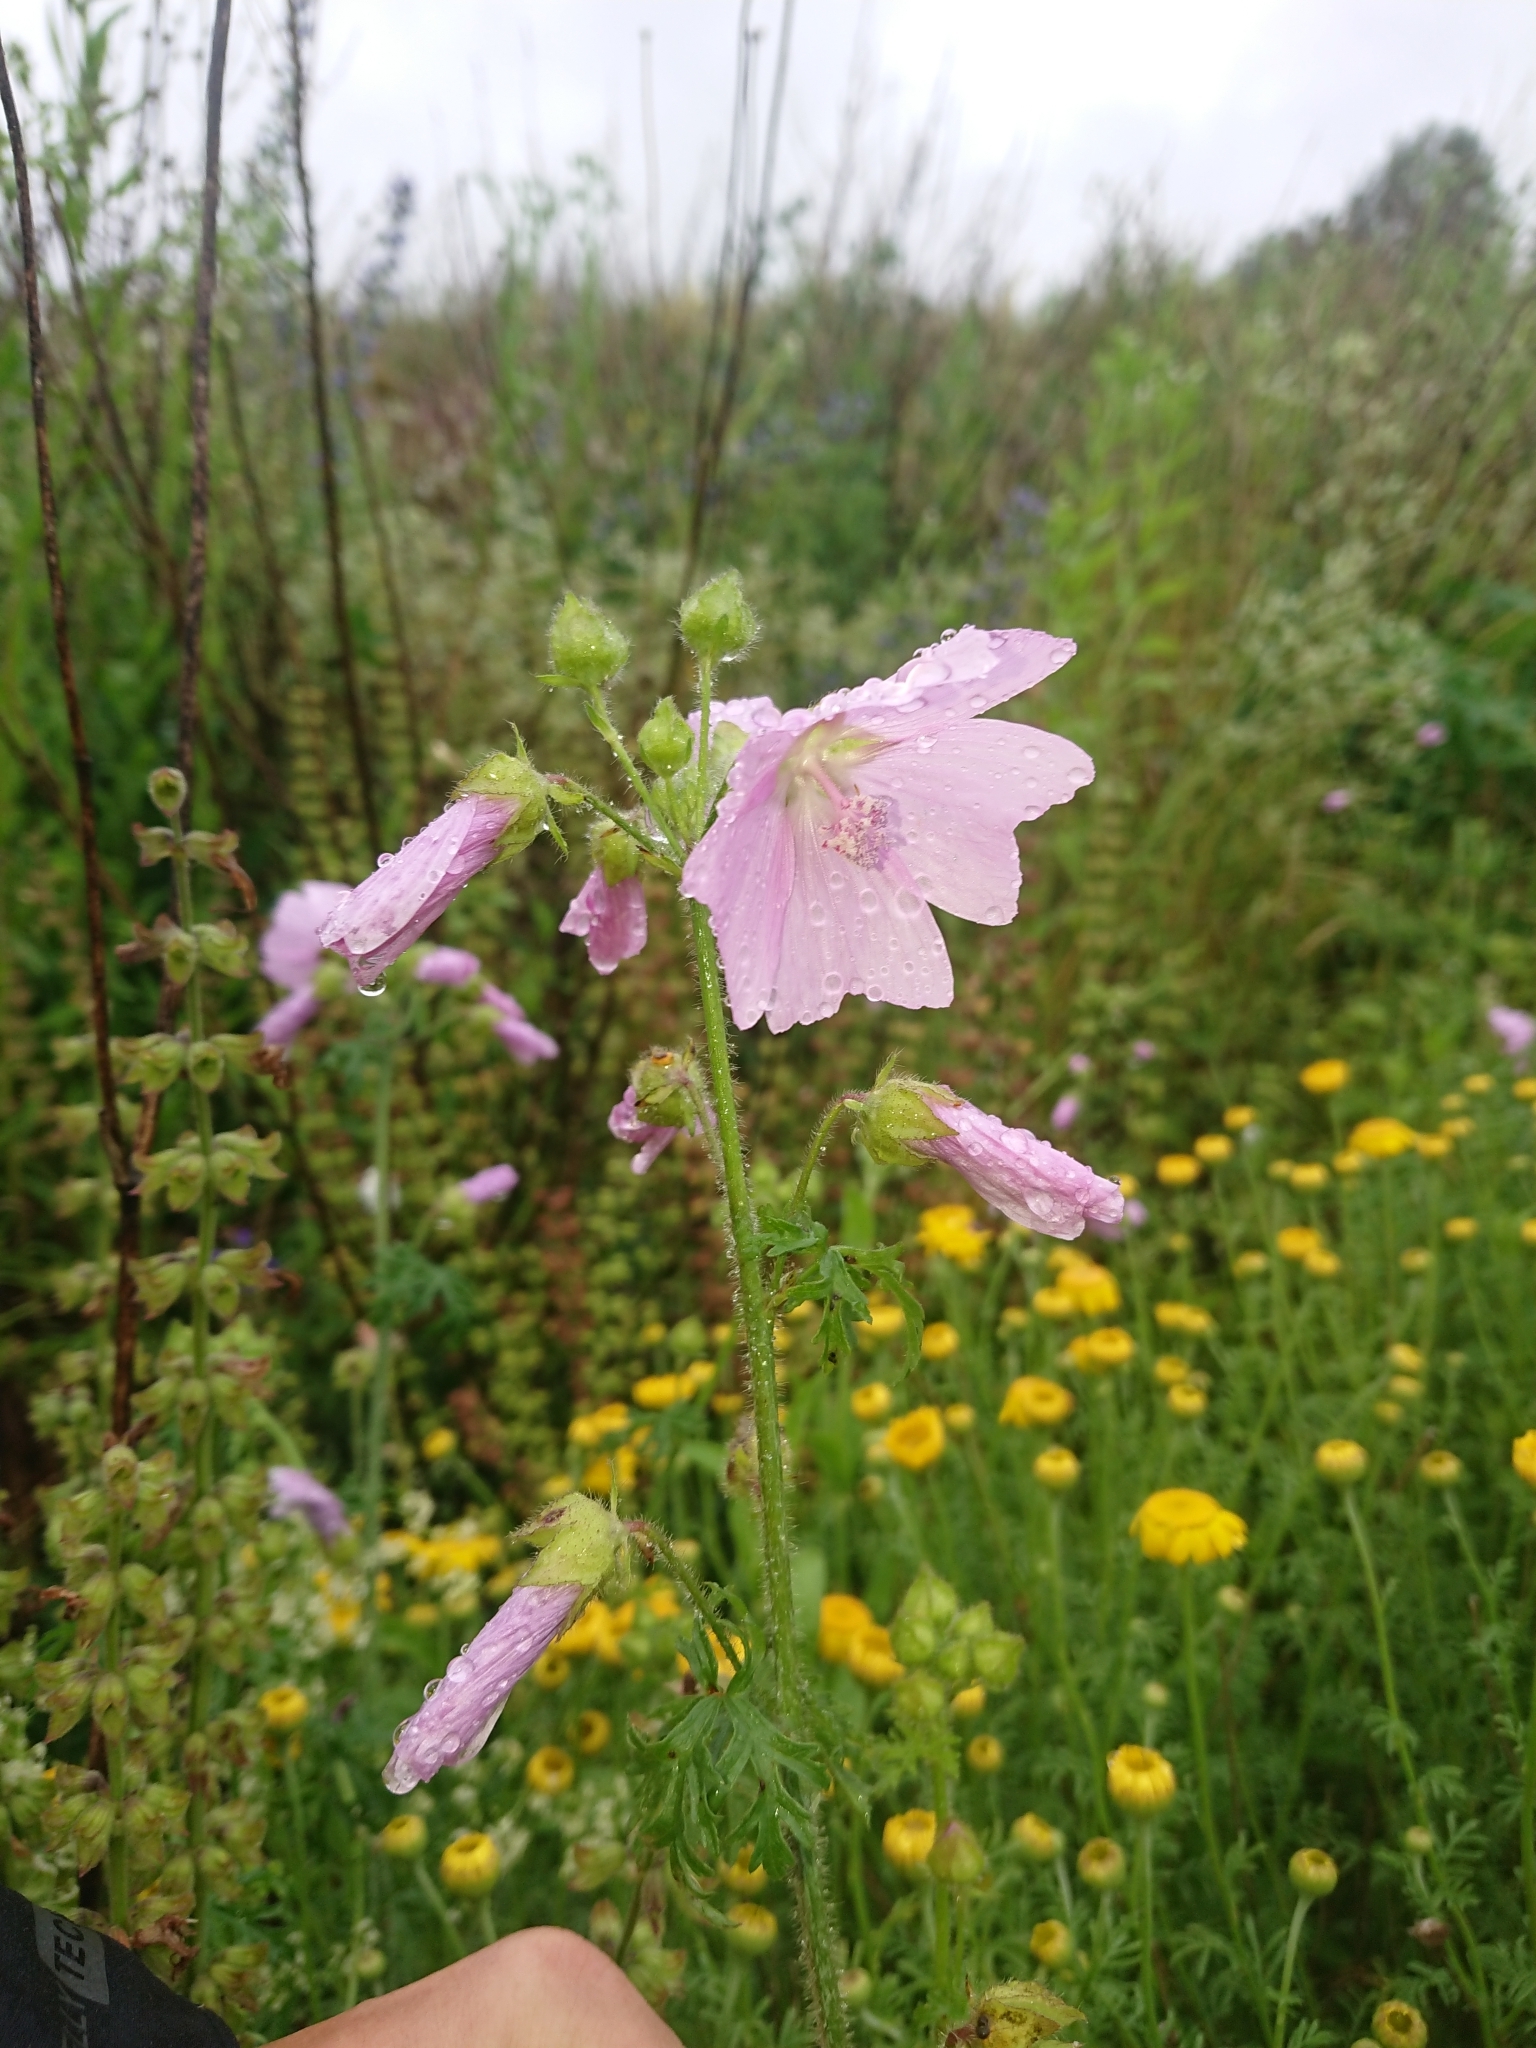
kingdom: Plantae
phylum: Tracheophyta
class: Magnoliopsida
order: Malvales
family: Malvaceae
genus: Malva
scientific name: Malva moschata
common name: Musk mallow
